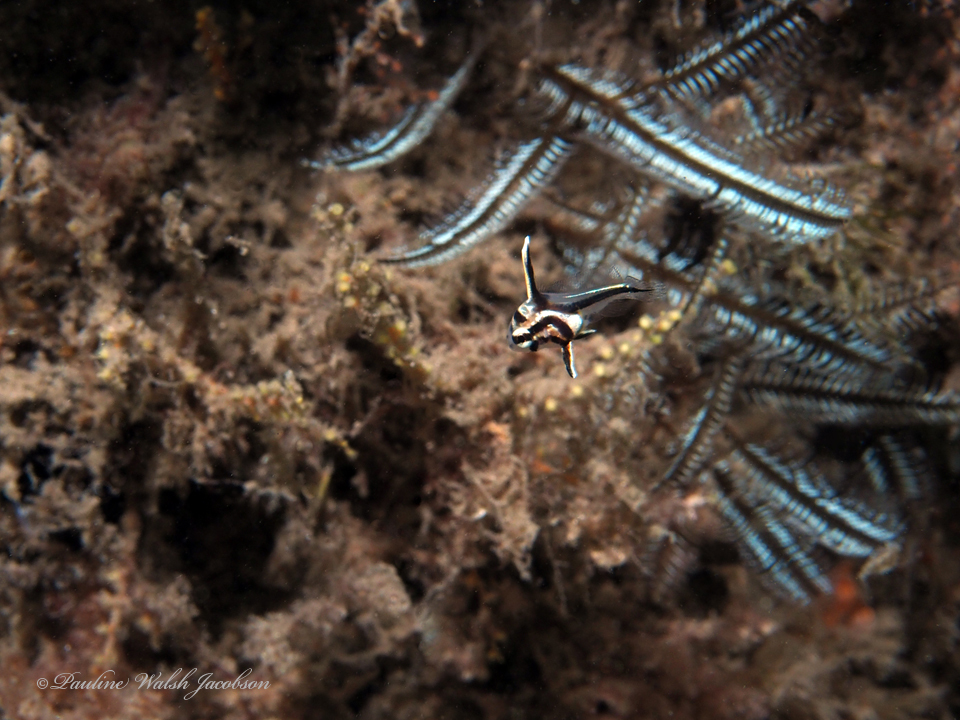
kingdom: Animalia
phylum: Chordata
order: Perciformes
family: Sciaenidae
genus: Pareques
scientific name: Pareques acuminatus
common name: High-hat
